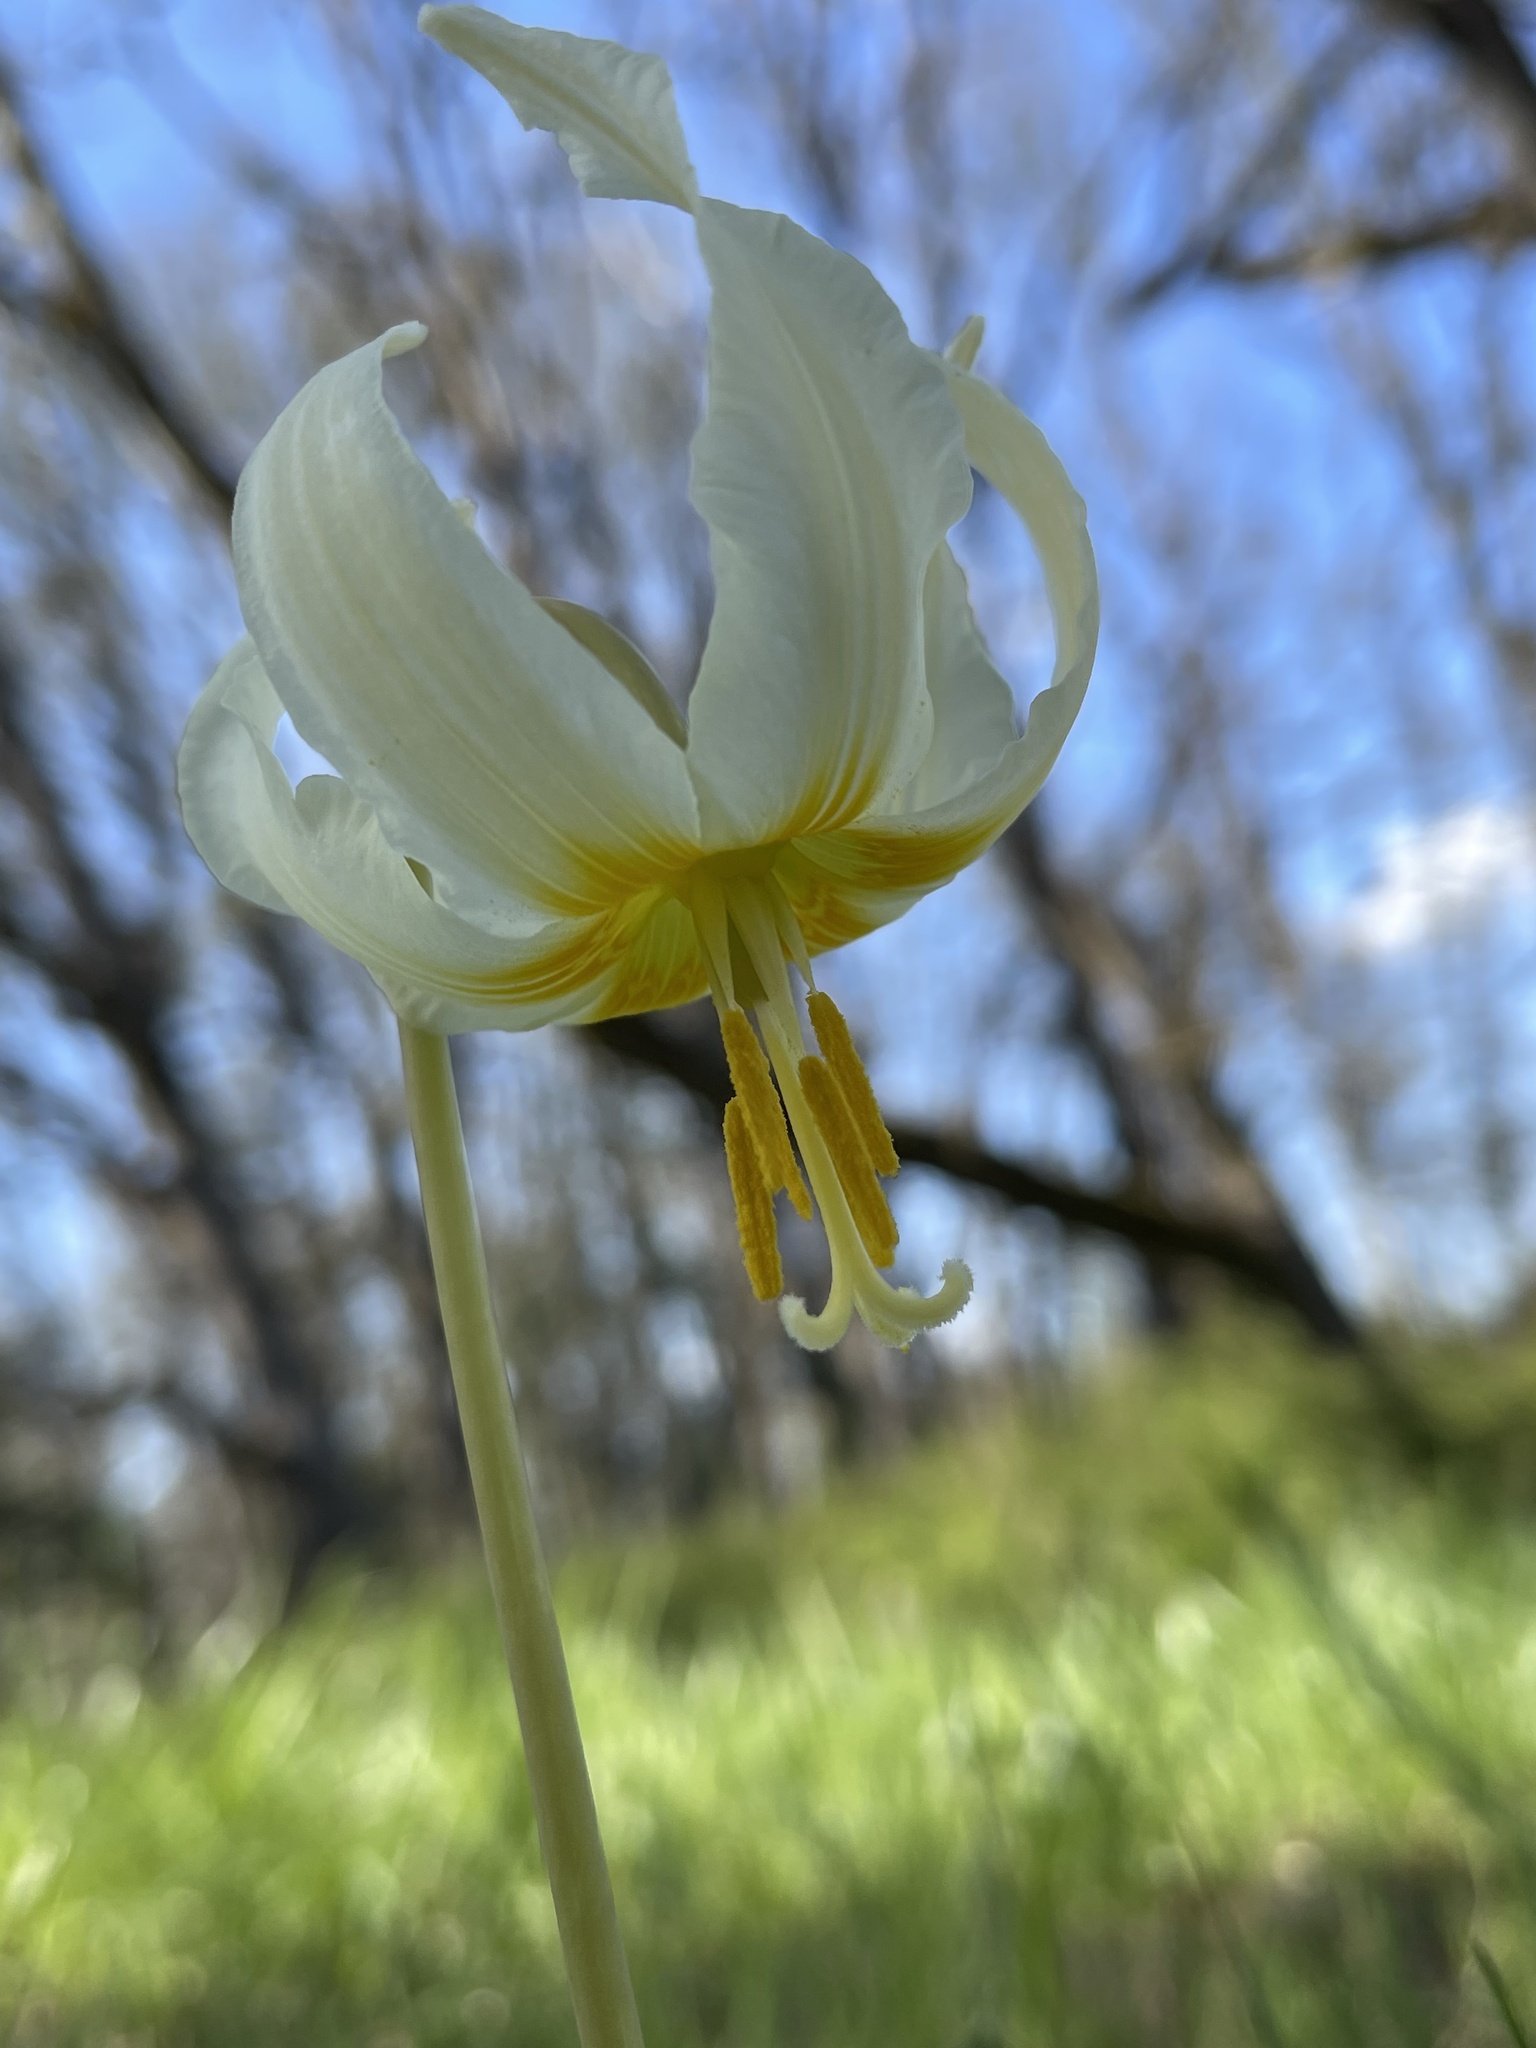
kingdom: Plantae
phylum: Tracheophyta
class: Liliopsida
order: Liliales
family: Liliaceae
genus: Erythronium
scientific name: Erythronium oregonum
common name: Giant adder's-tongue
